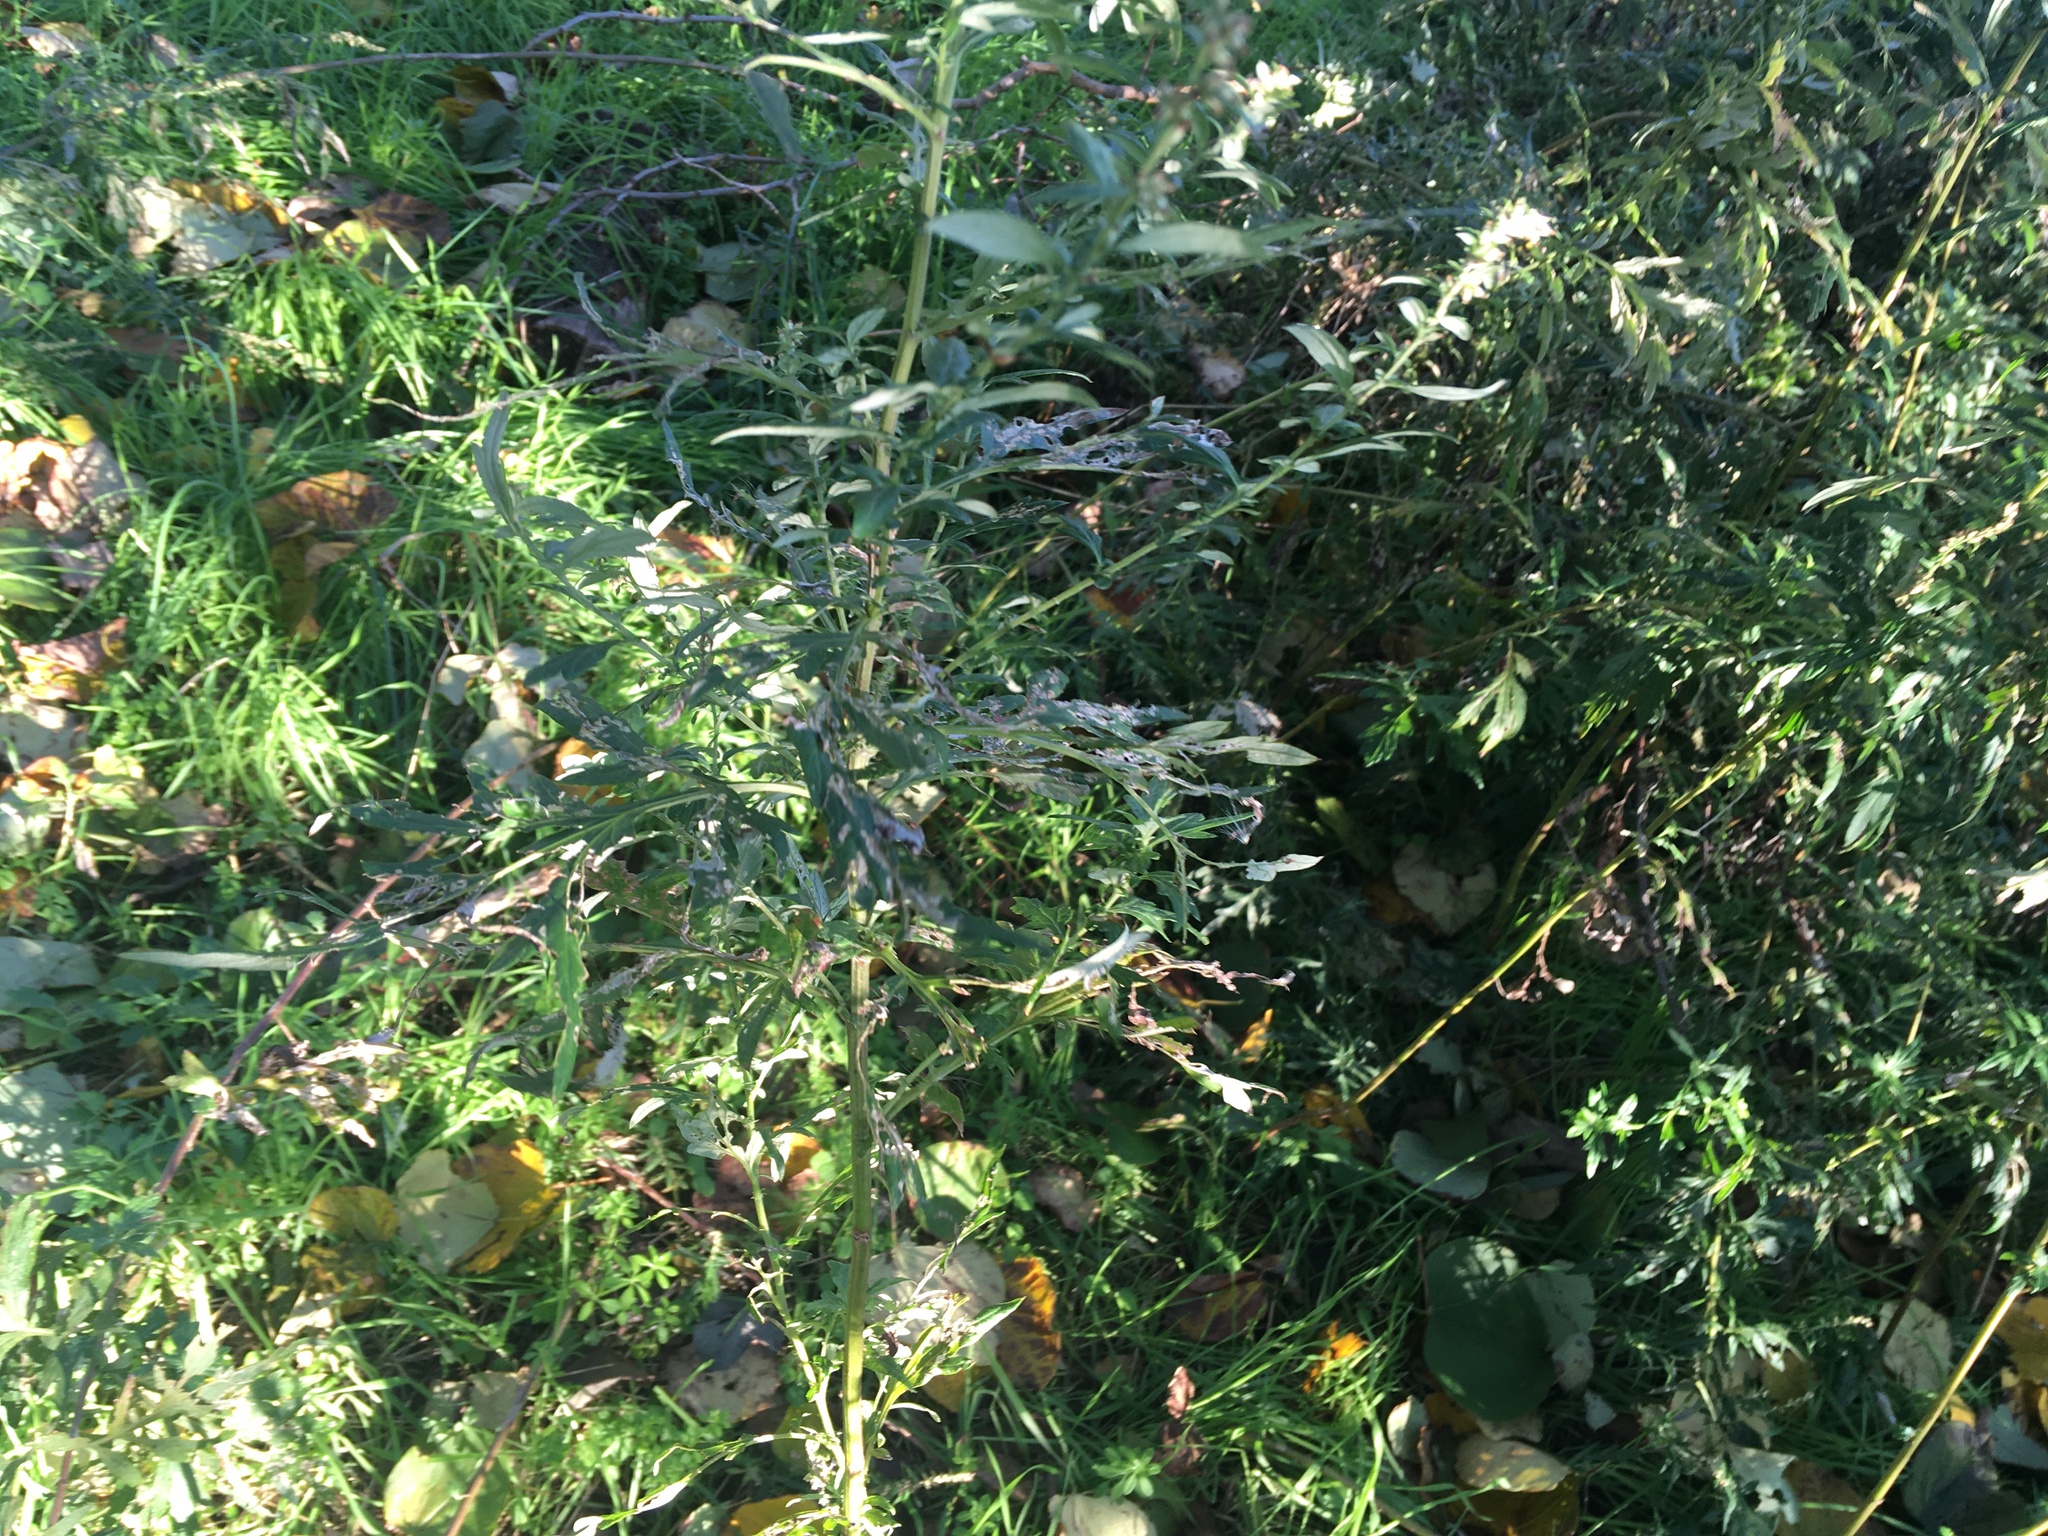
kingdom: Plantae
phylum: Tracheophyta
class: Magnoliopsida
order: Asterales
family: Asteraceae
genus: Artemisia
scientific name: Artemisia vulgaris
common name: Mugwort
